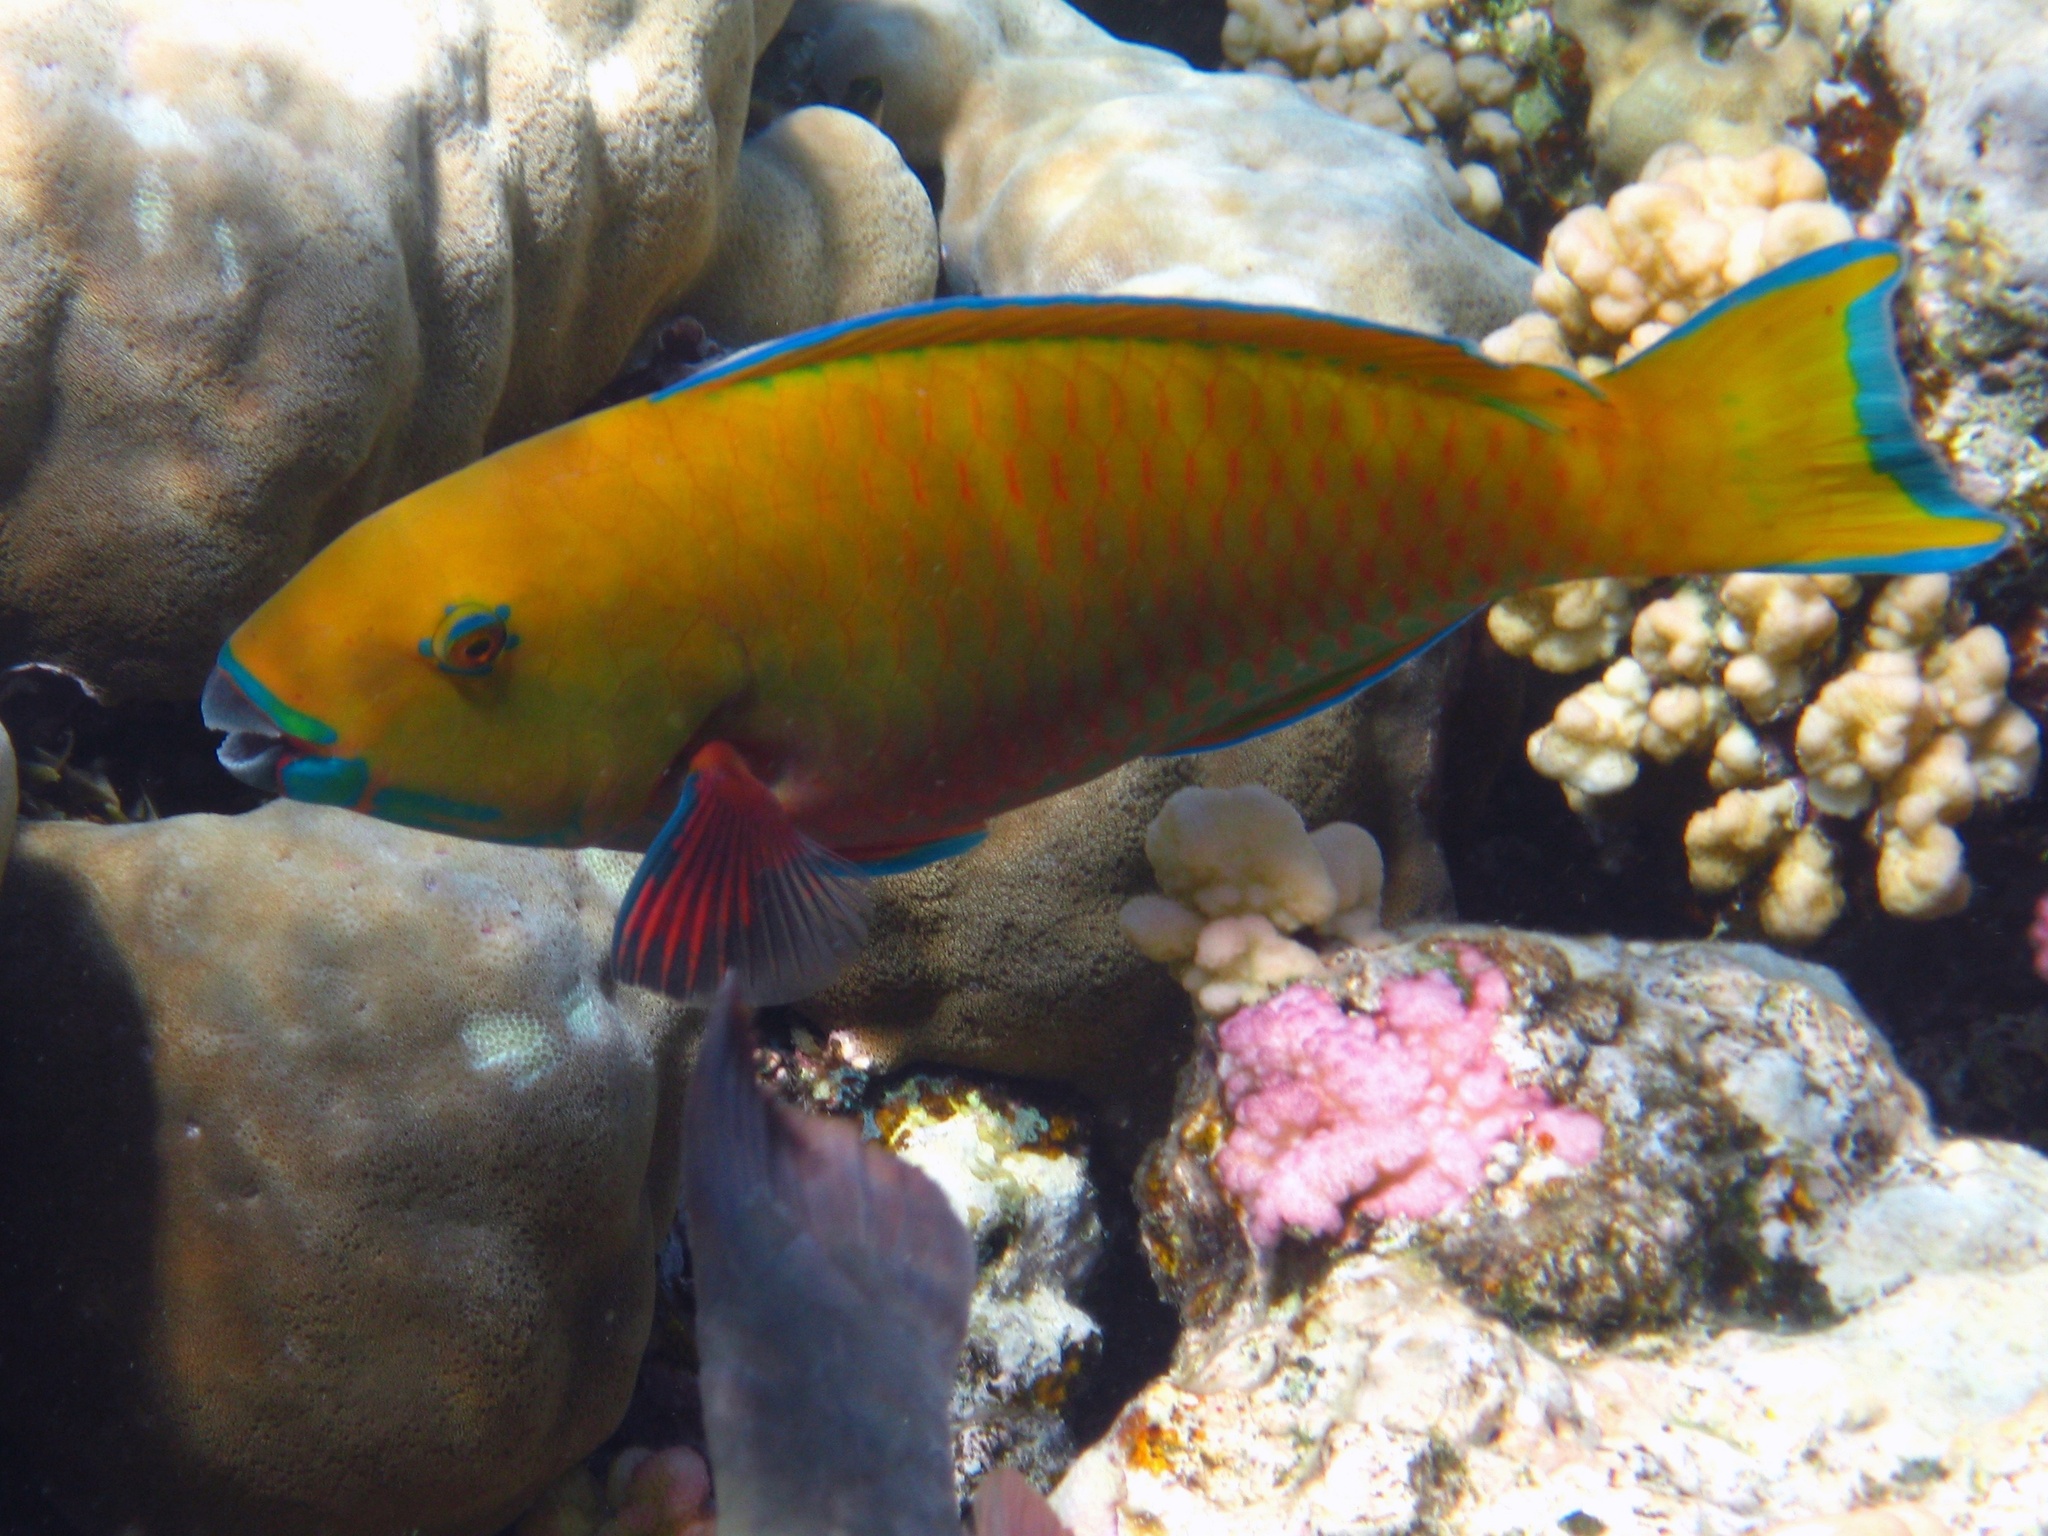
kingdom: Animalia
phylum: Chordata
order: Perciformes
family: Scaridae
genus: Chlorurus
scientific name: Chlorurus gibbus
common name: Heavybeak parrotfish
